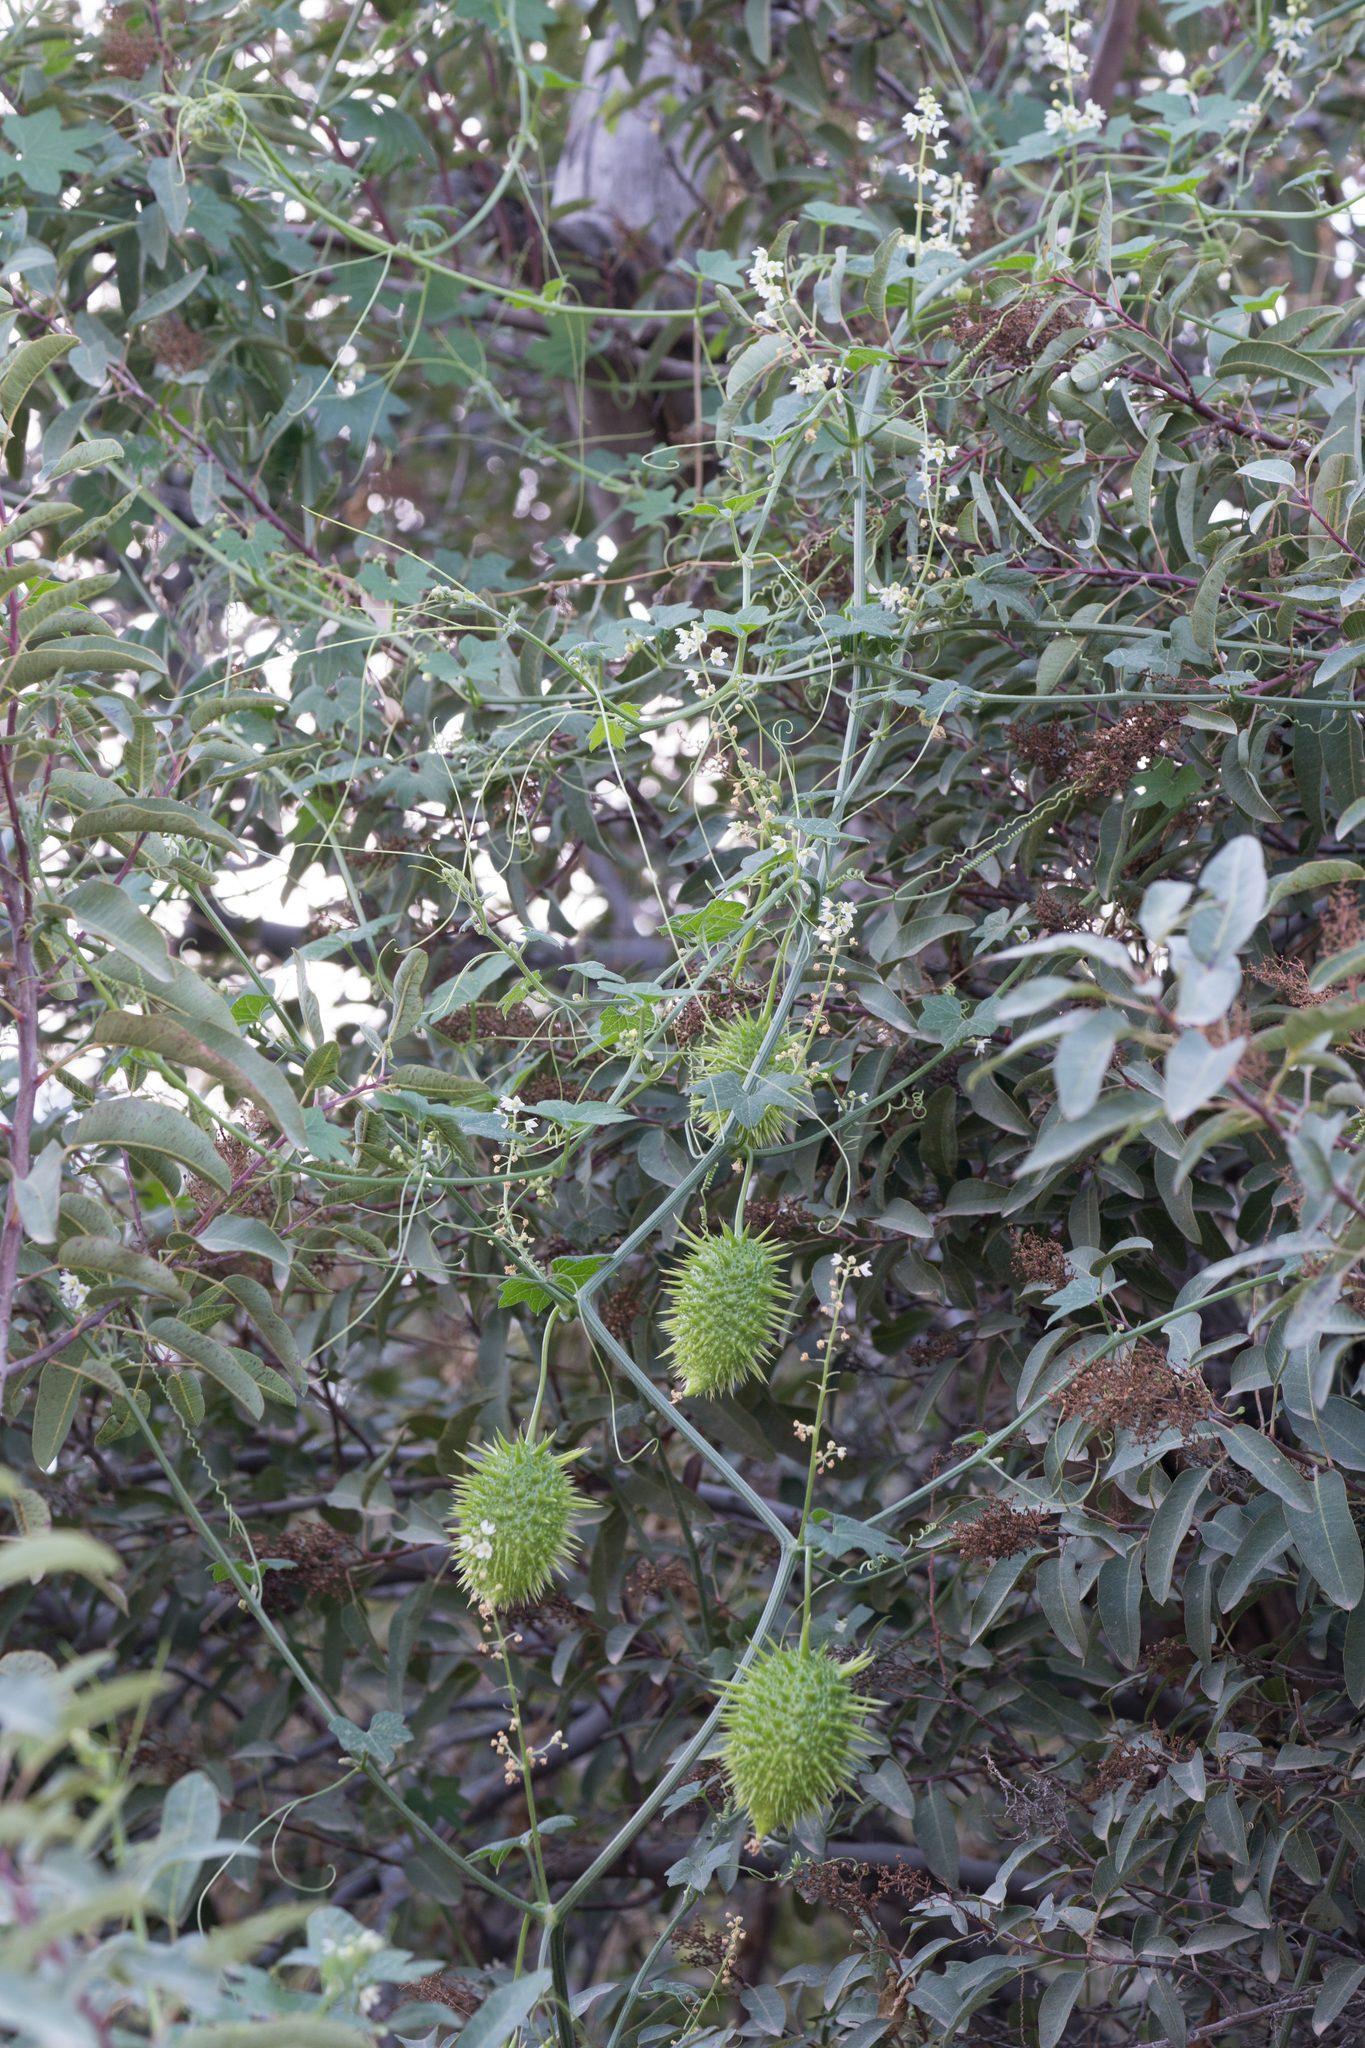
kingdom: Plantae
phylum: Tracheophyta
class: Magnoliopsida
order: Cucurbitales
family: Cucurbitaceae
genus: Marah
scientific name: Marah macrocarpa
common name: Cucamonga manroot
